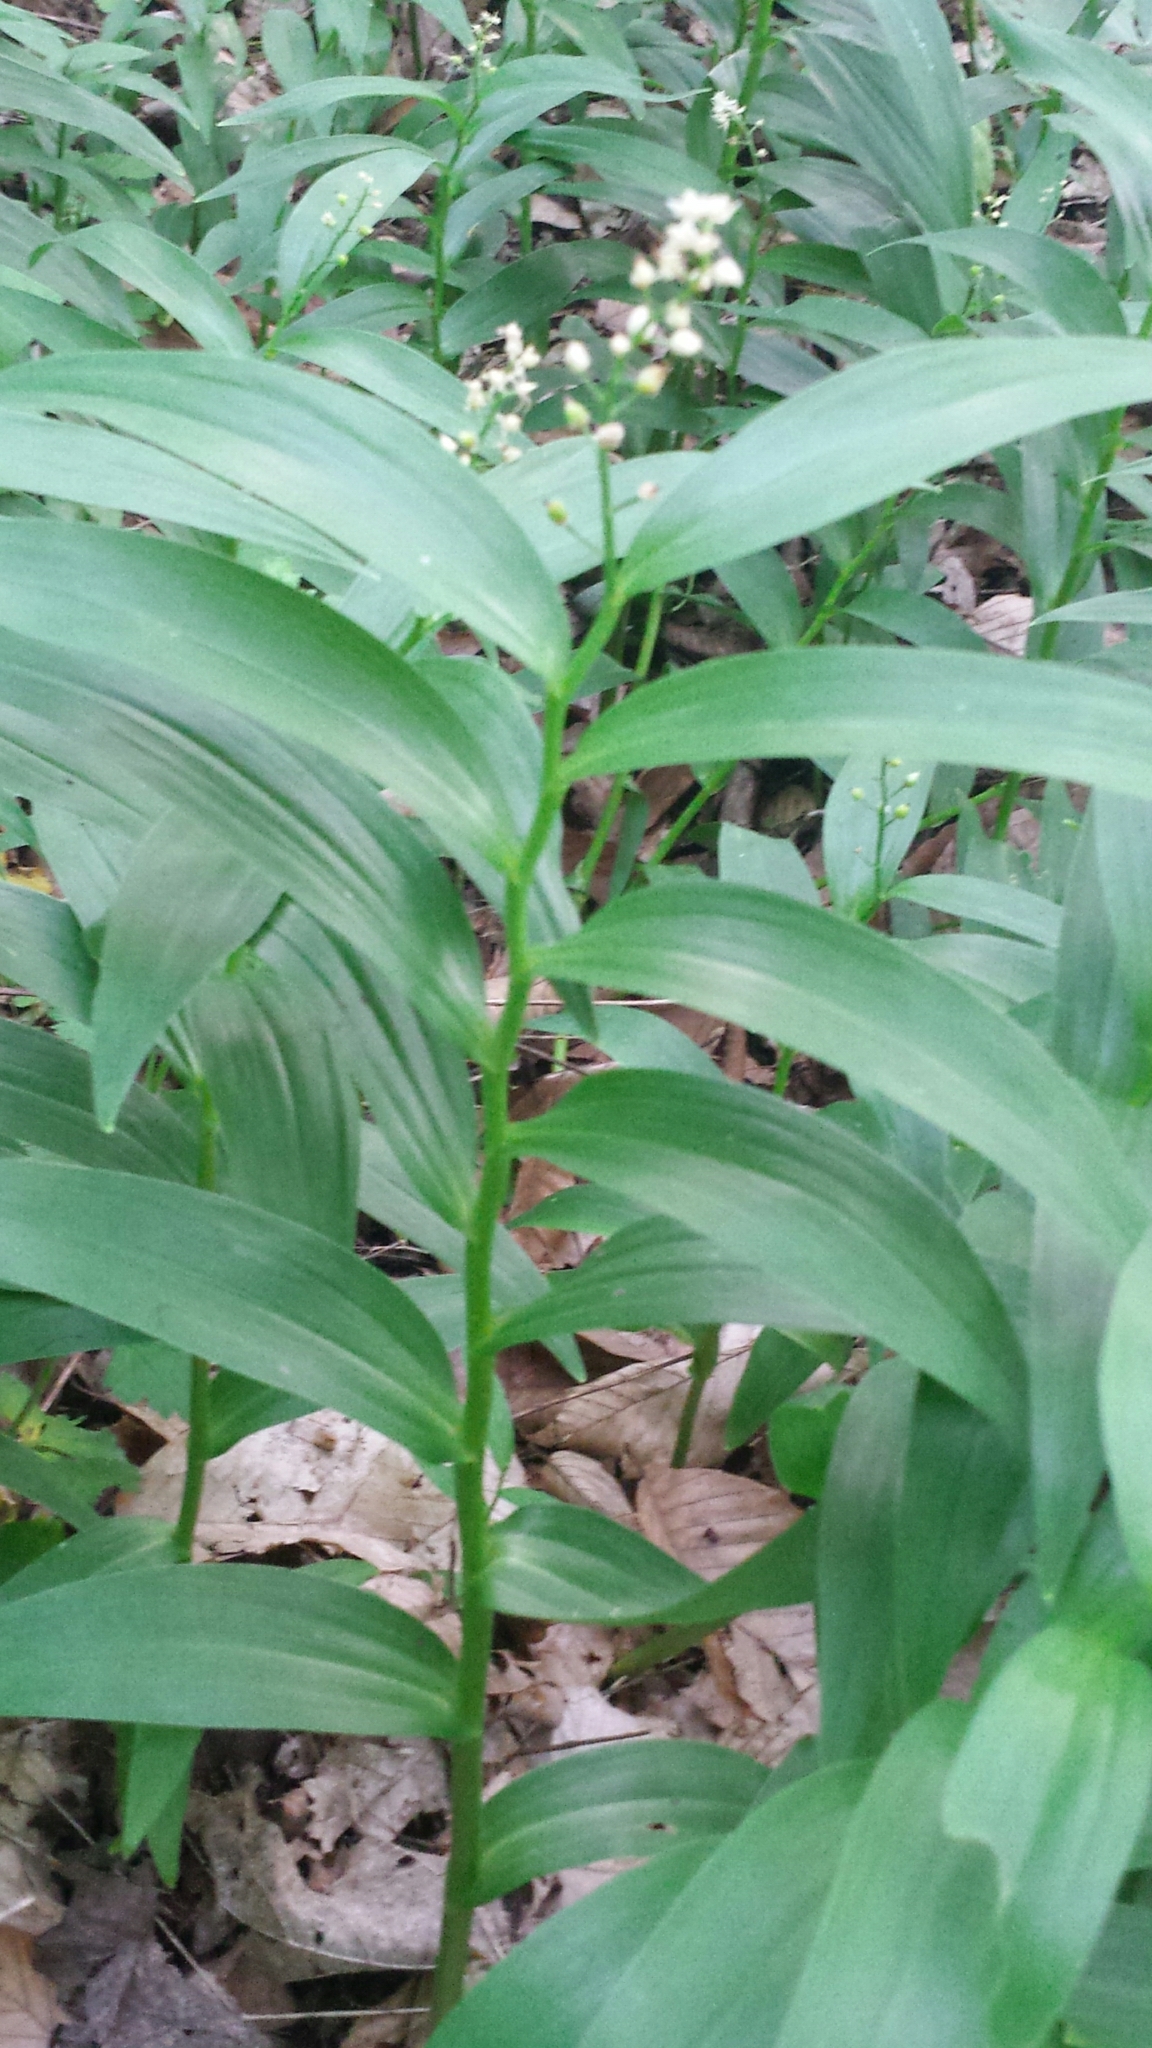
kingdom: Plantae
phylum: Tracheophyta
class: Liliopsida
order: Asparagales
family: Asparagaceae
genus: Maianthemum
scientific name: Maianthemum stellatum
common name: Little false solomon's seal
